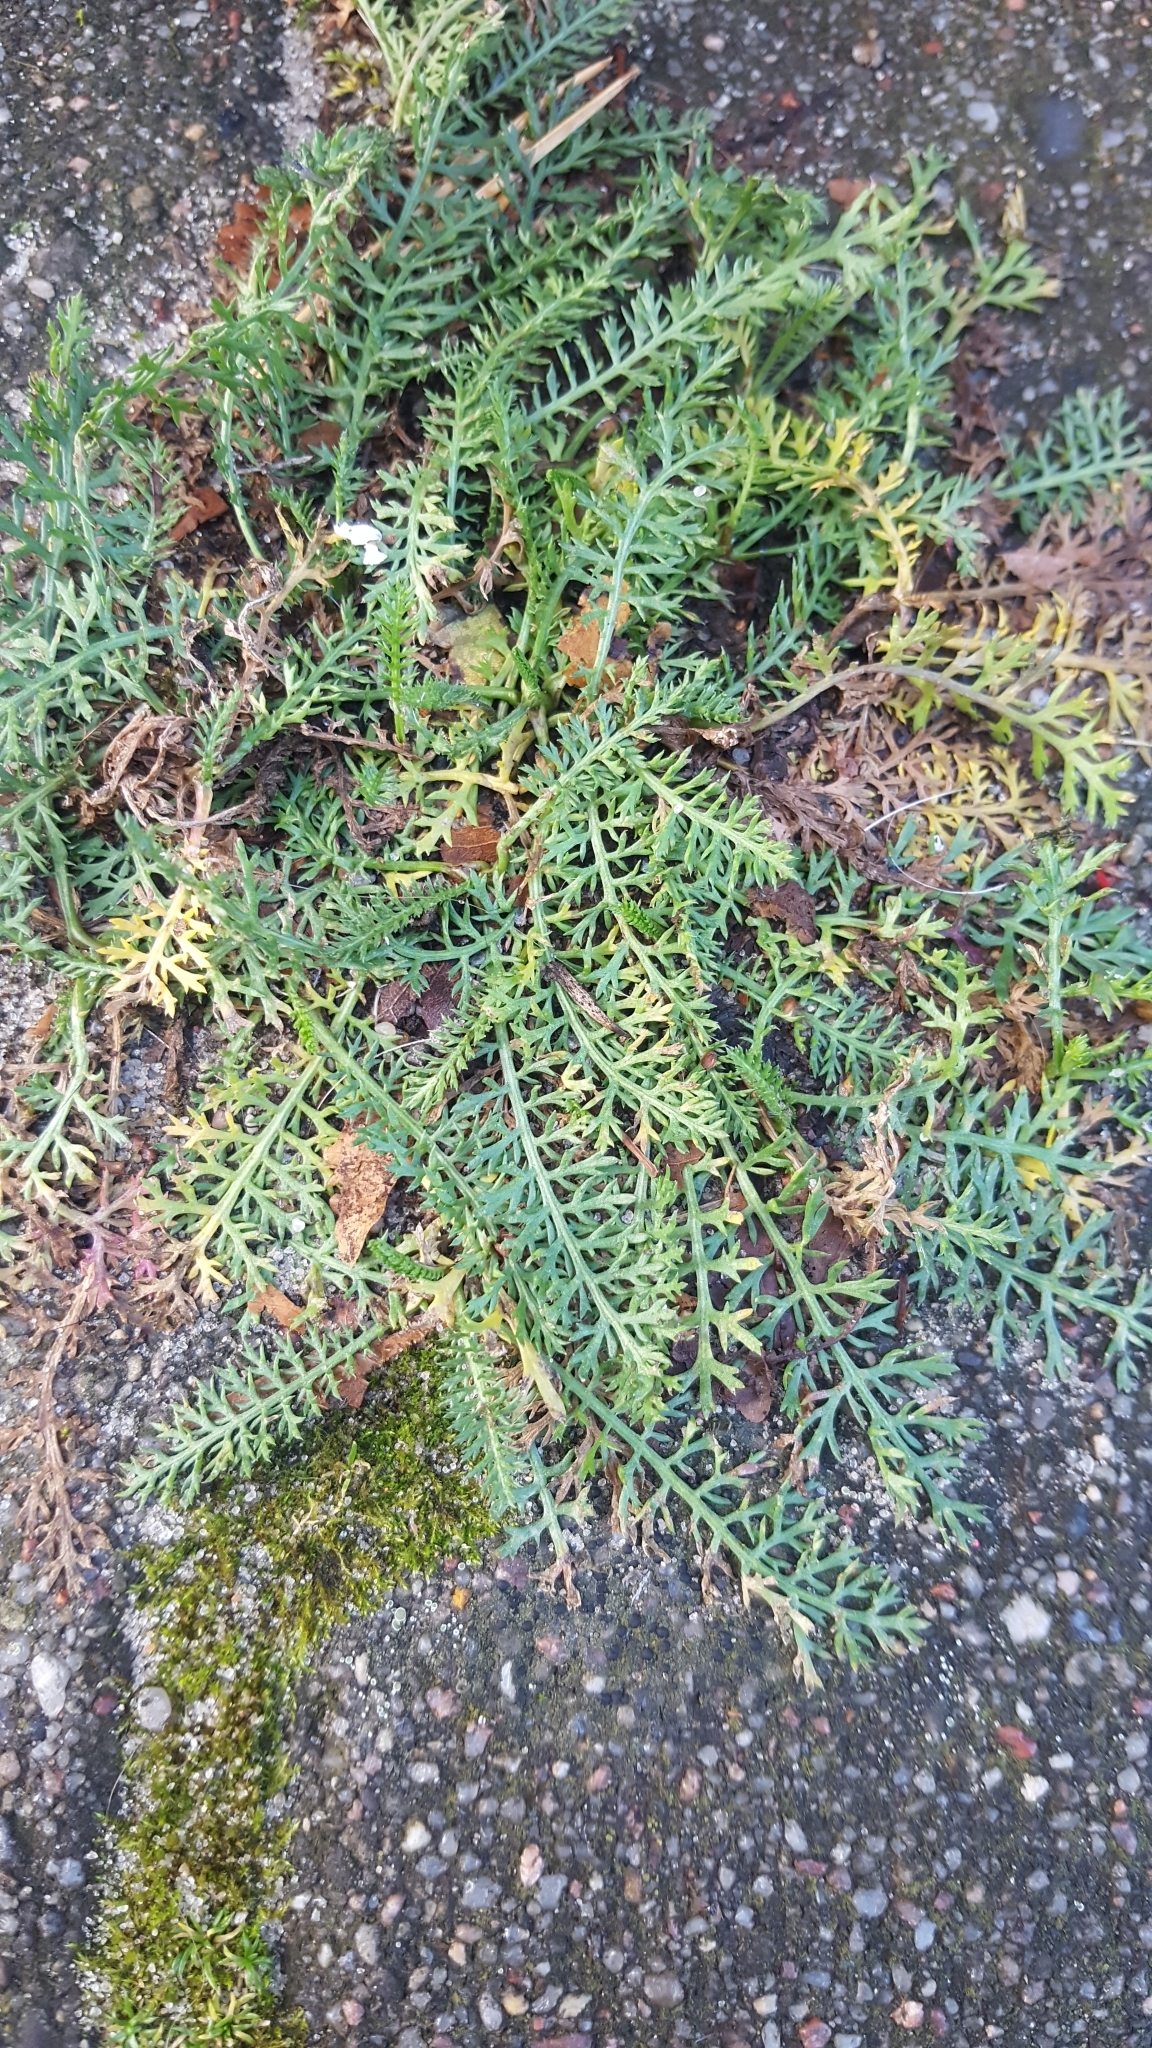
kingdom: Plantae
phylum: Tracheophyta
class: Magnoliopsida
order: Asterales
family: Asteraceae
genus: Achillea
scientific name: Achillea millefolium
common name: Yarrow
